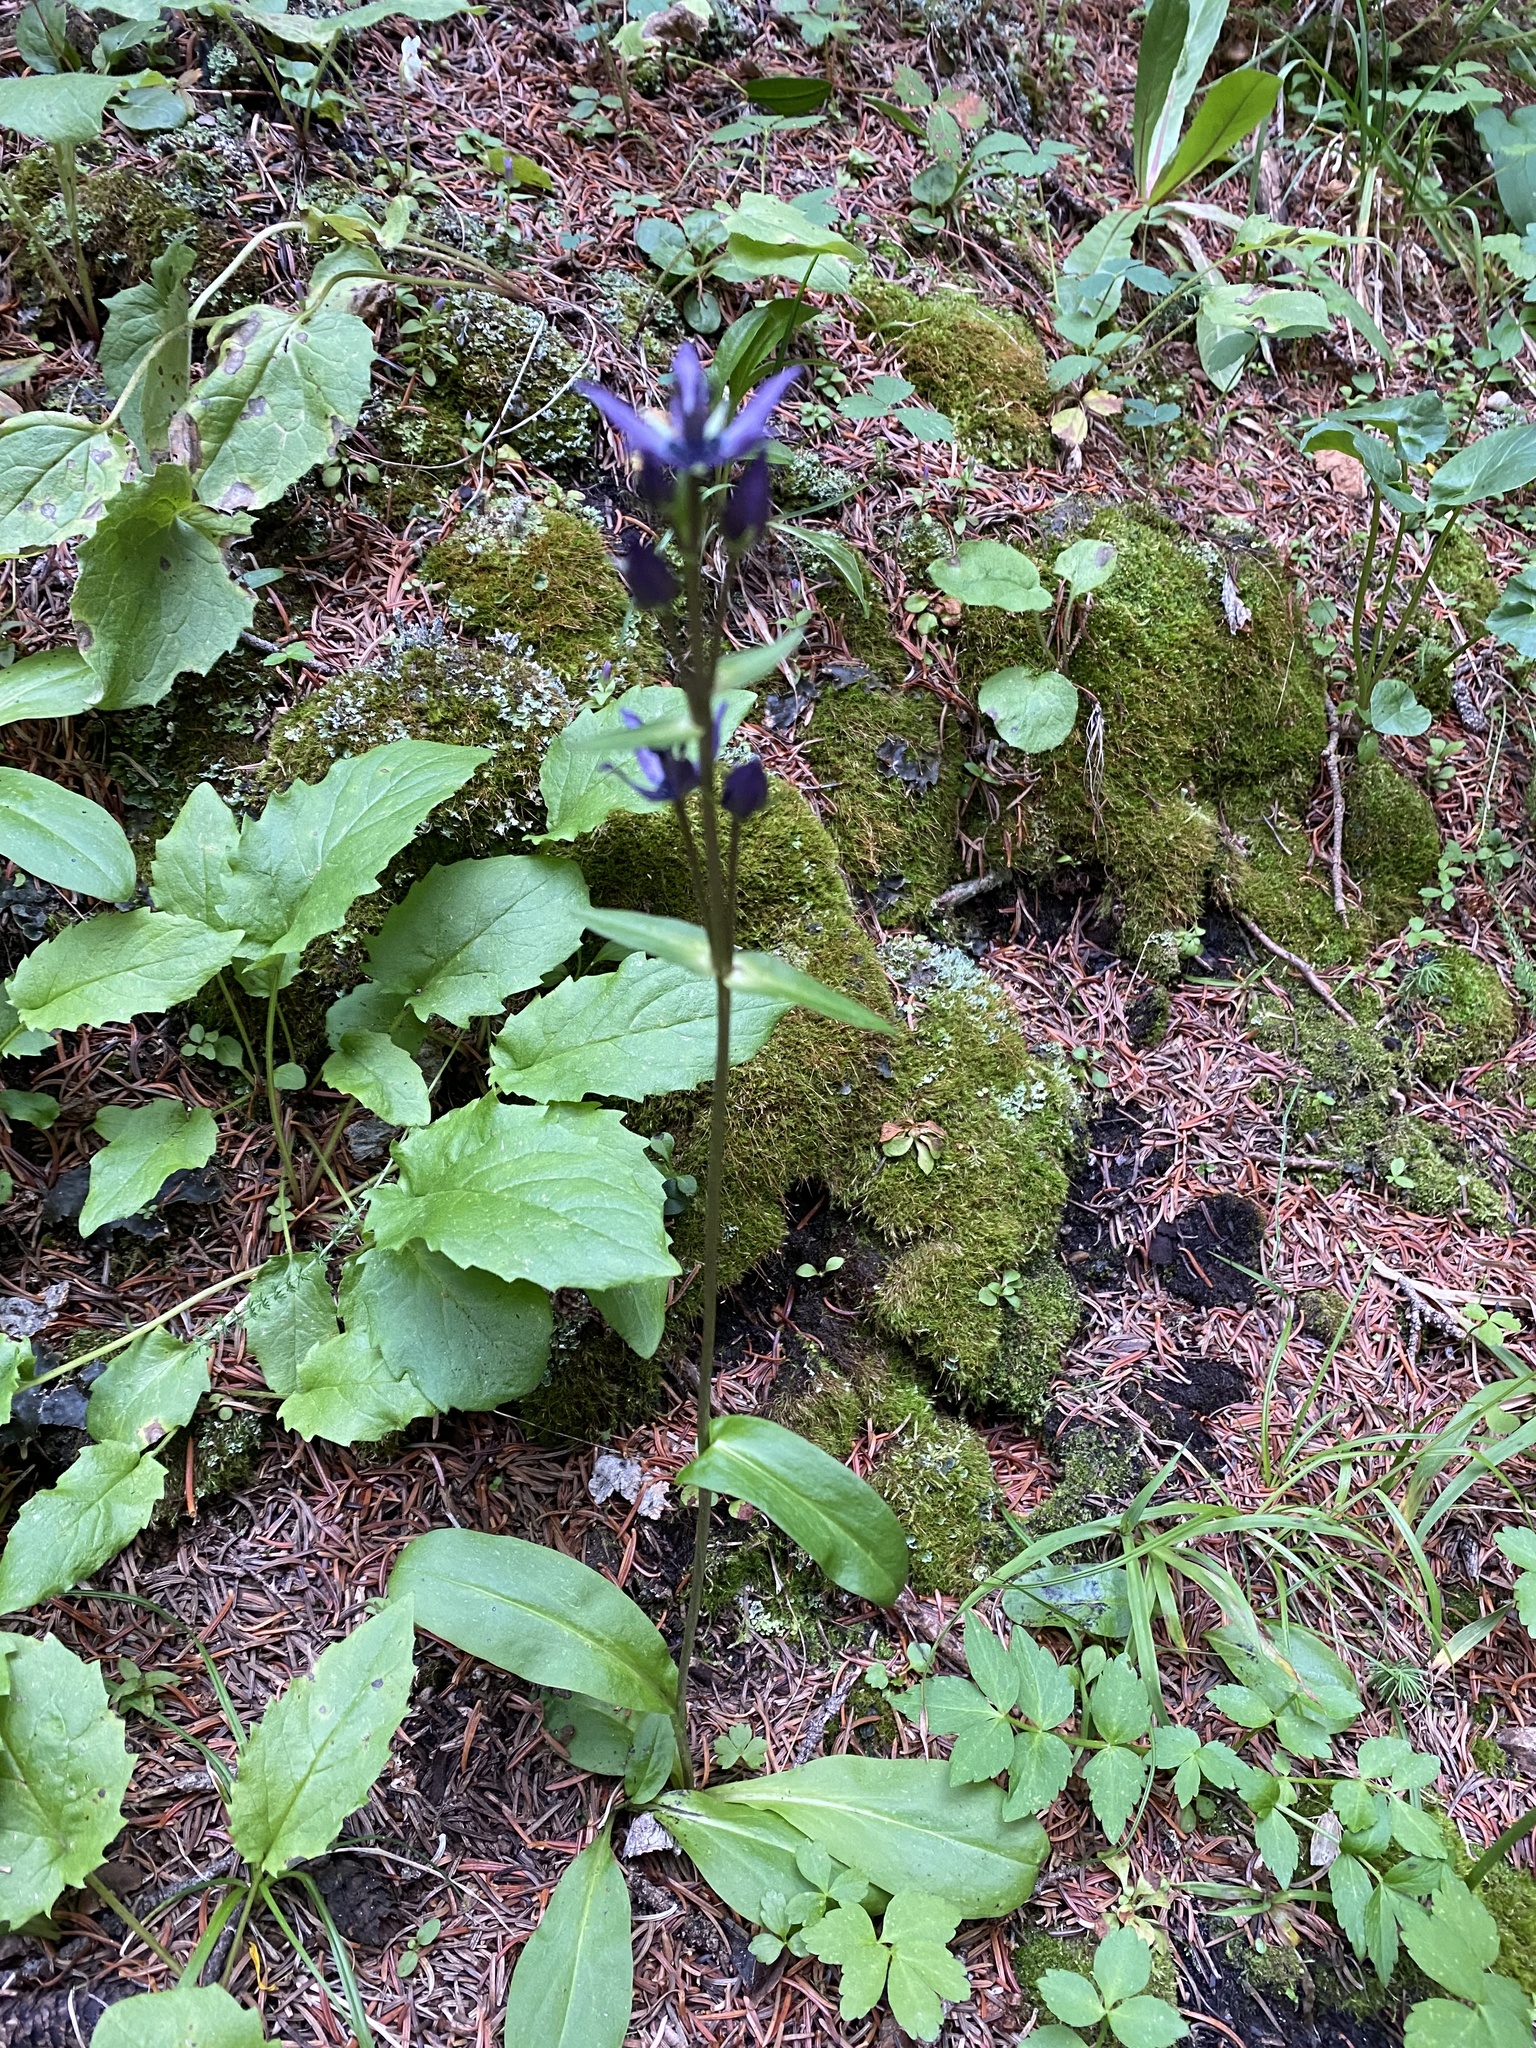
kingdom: Plantae
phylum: Tracheophyta
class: Magnoliopsida
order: Gentianales
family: Gentianaceae
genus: Swertia
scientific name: Swertia perennis
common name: Alpine bog swertia
